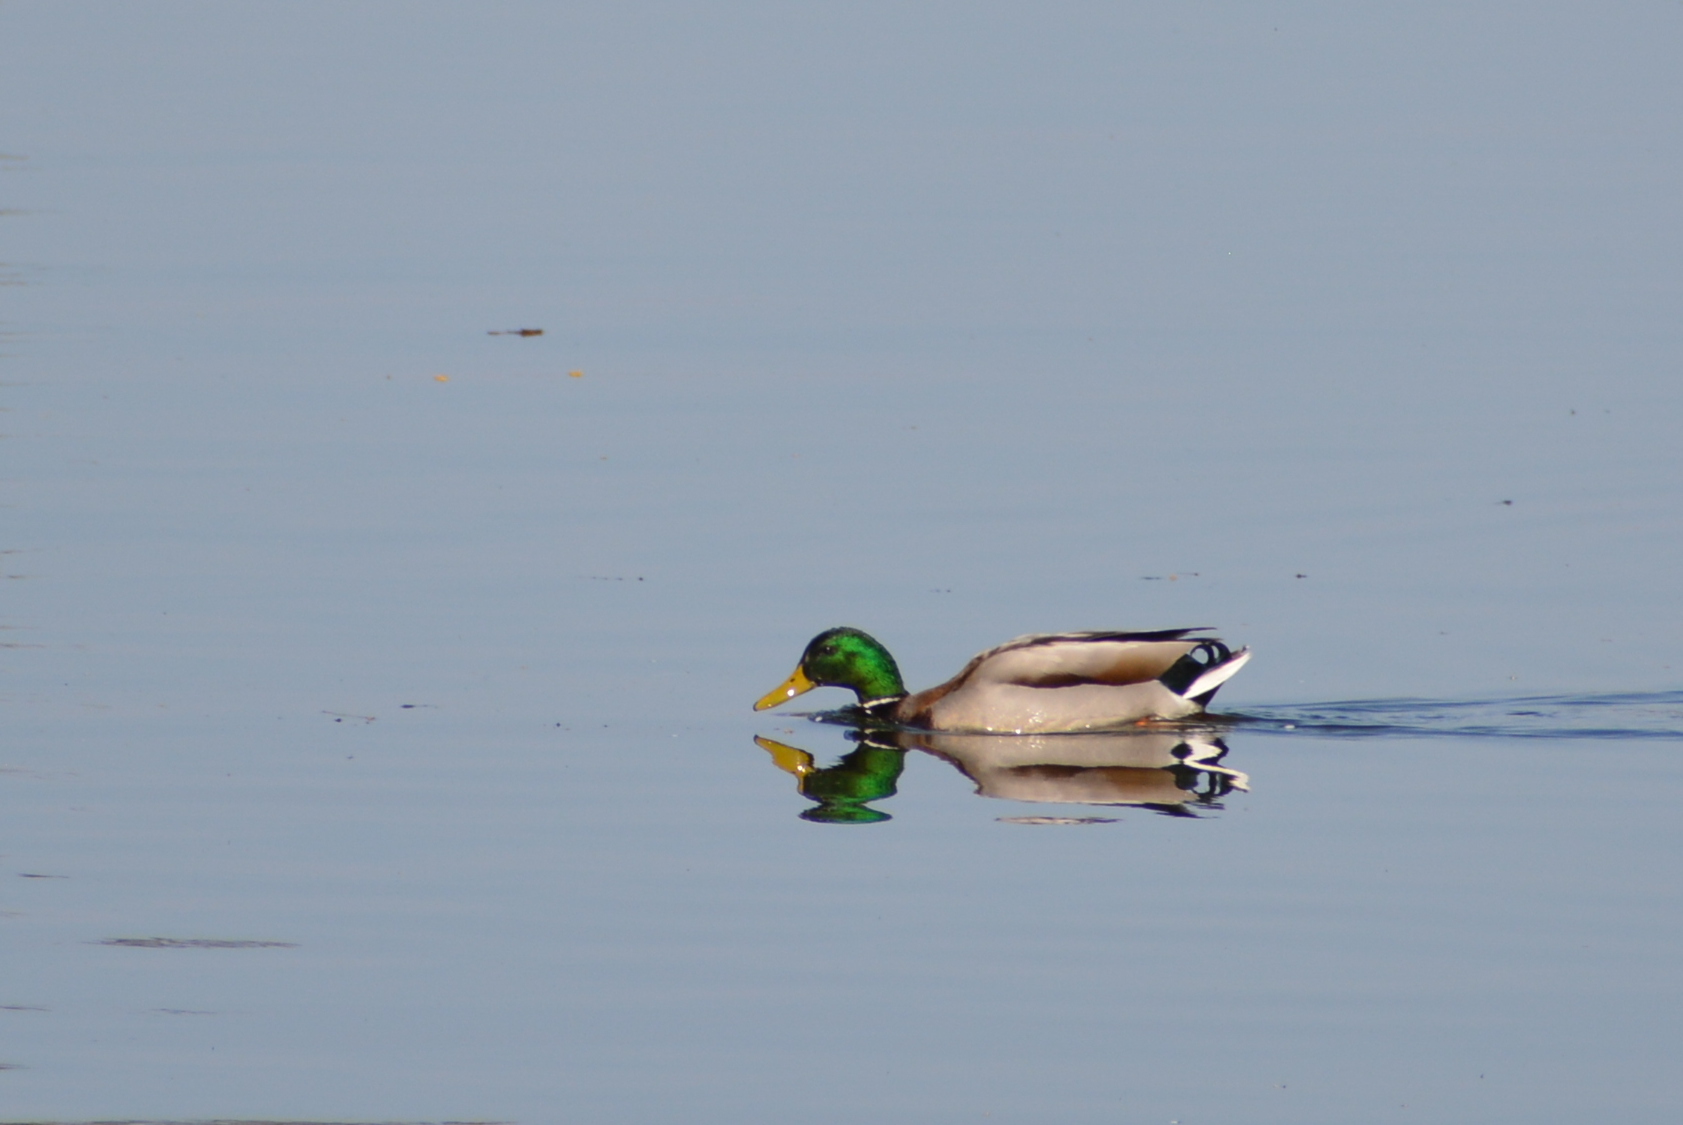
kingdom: Animalia
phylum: Chordata
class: Aves
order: Anseriformes
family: Anatidae
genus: Anas
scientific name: Anas platyrhynchos
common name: Mallard
